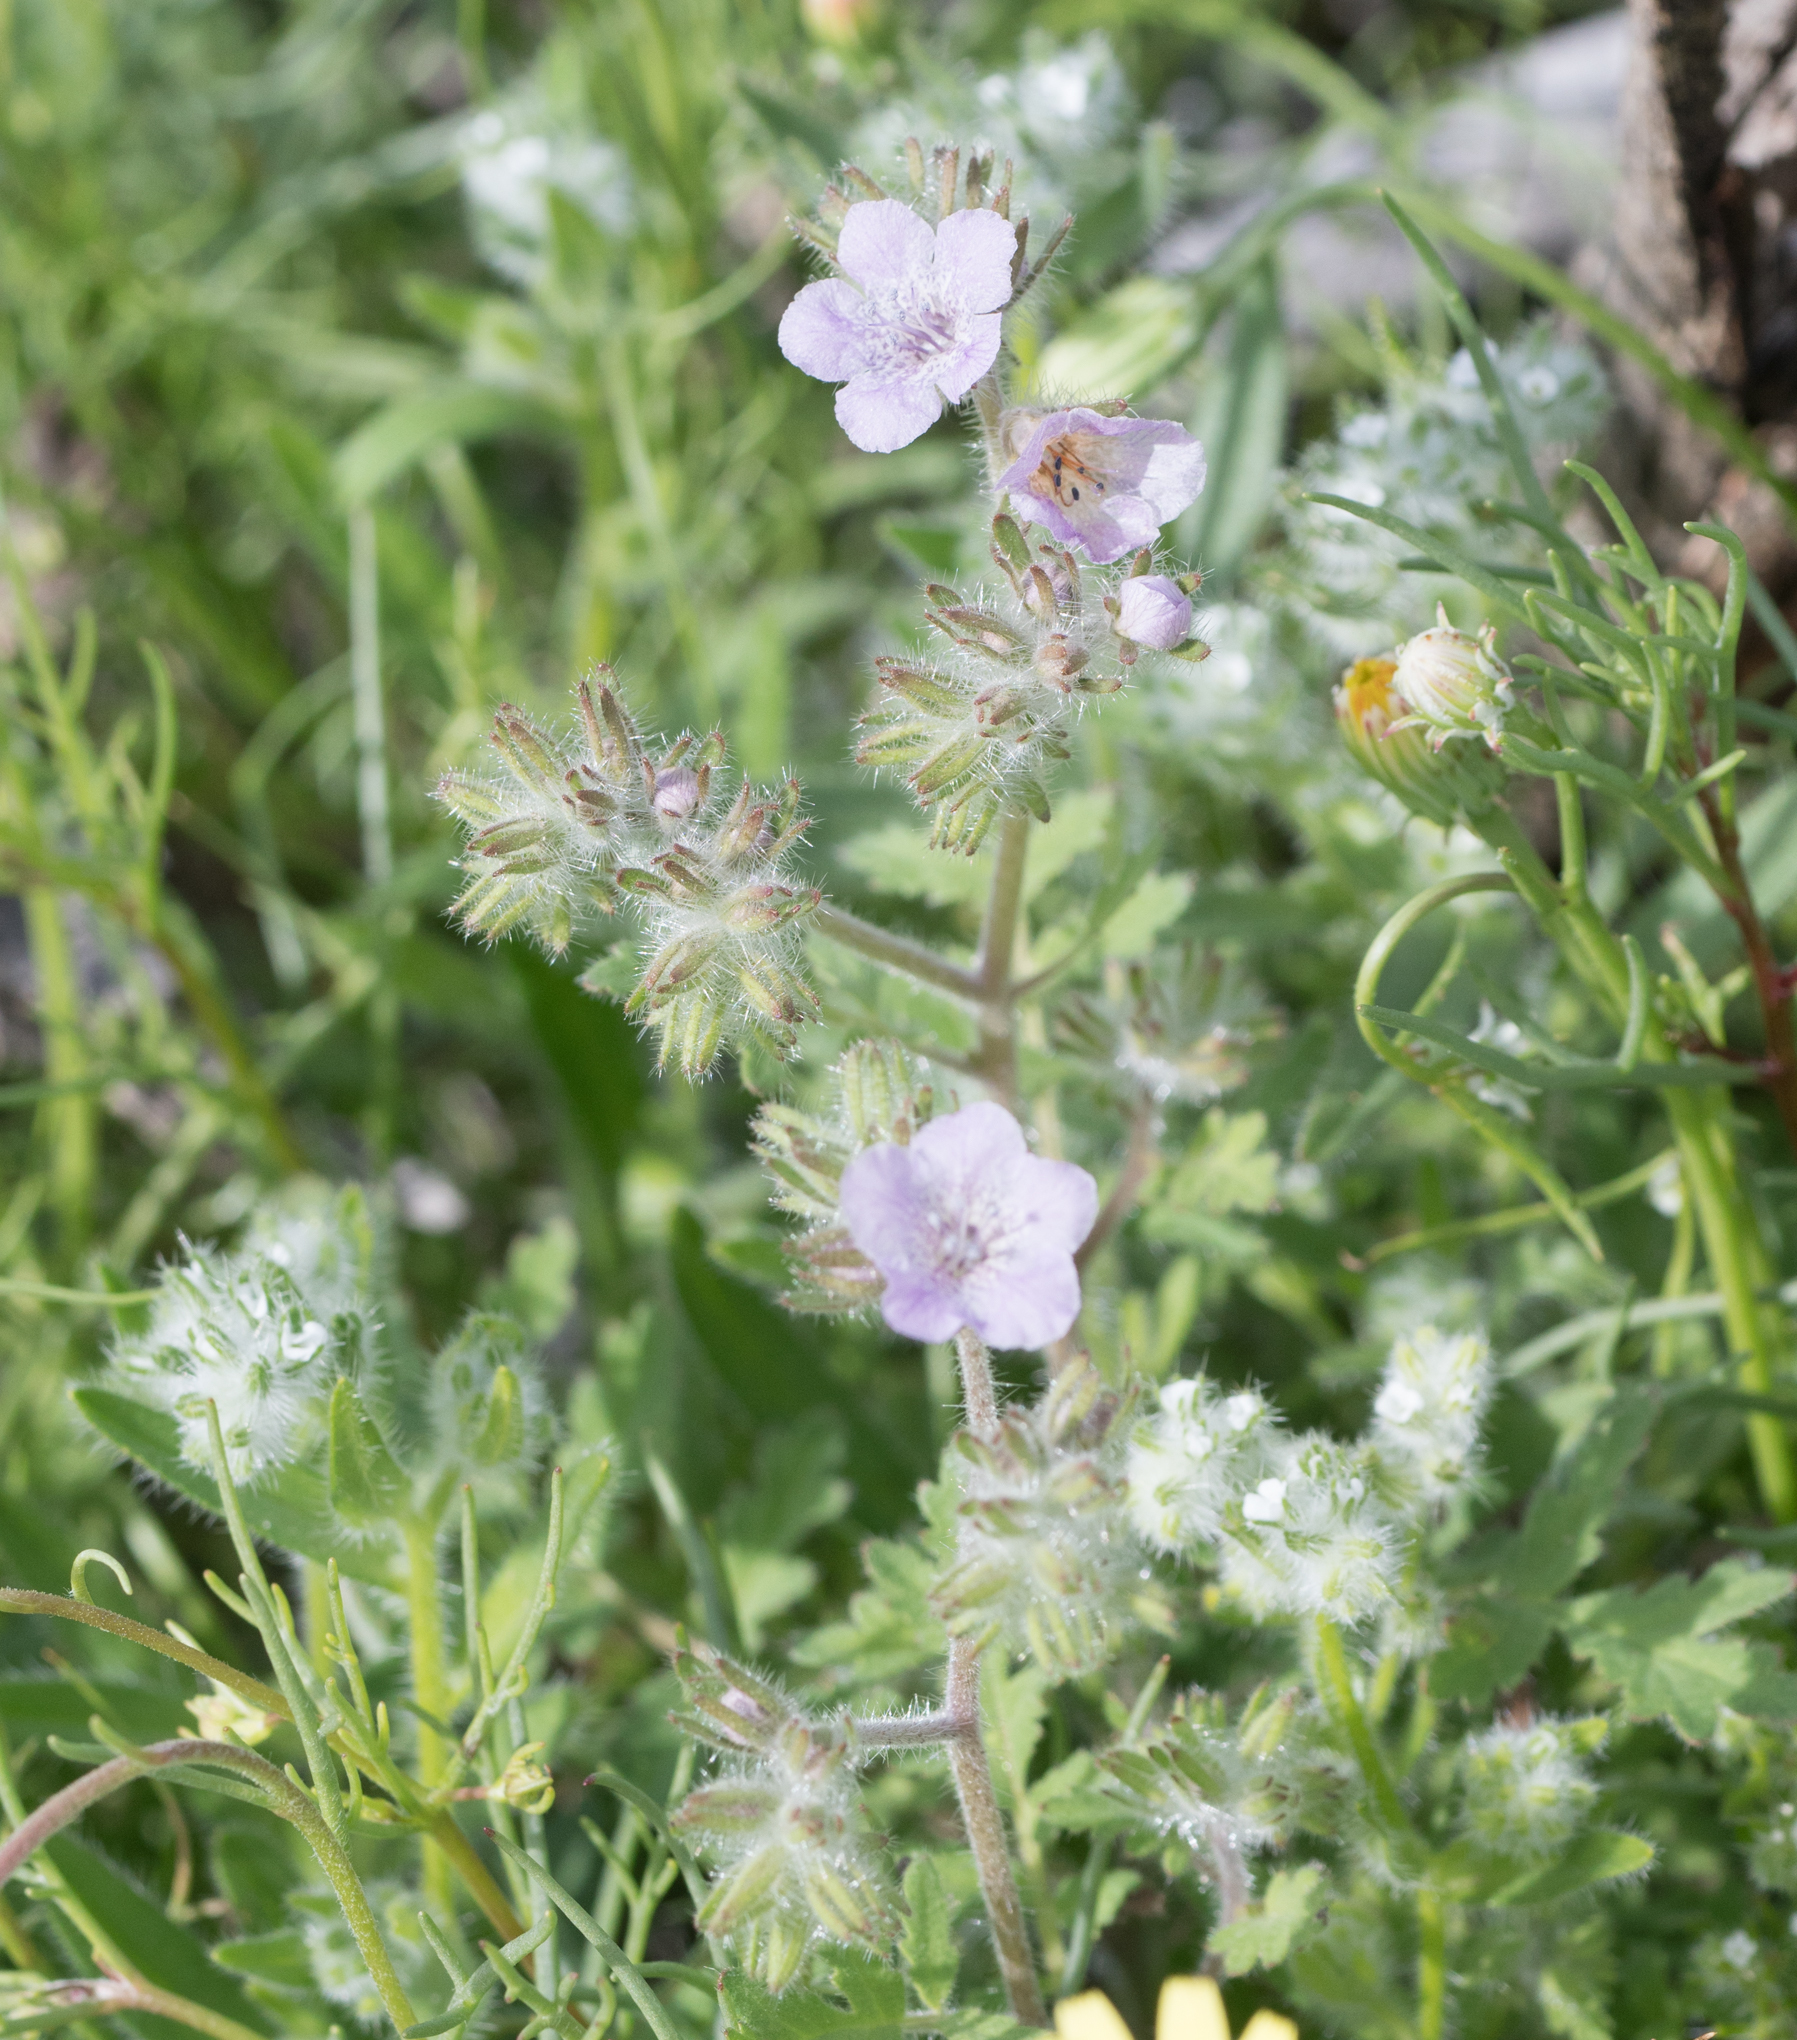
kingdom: Plantae
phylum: Tracheophyta
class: Magnoliopsida
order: Boraginales
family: Hydrophyllaceae
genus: Phacelia
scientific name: Phacelia cicutaria
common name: Caterpillar phacelia
